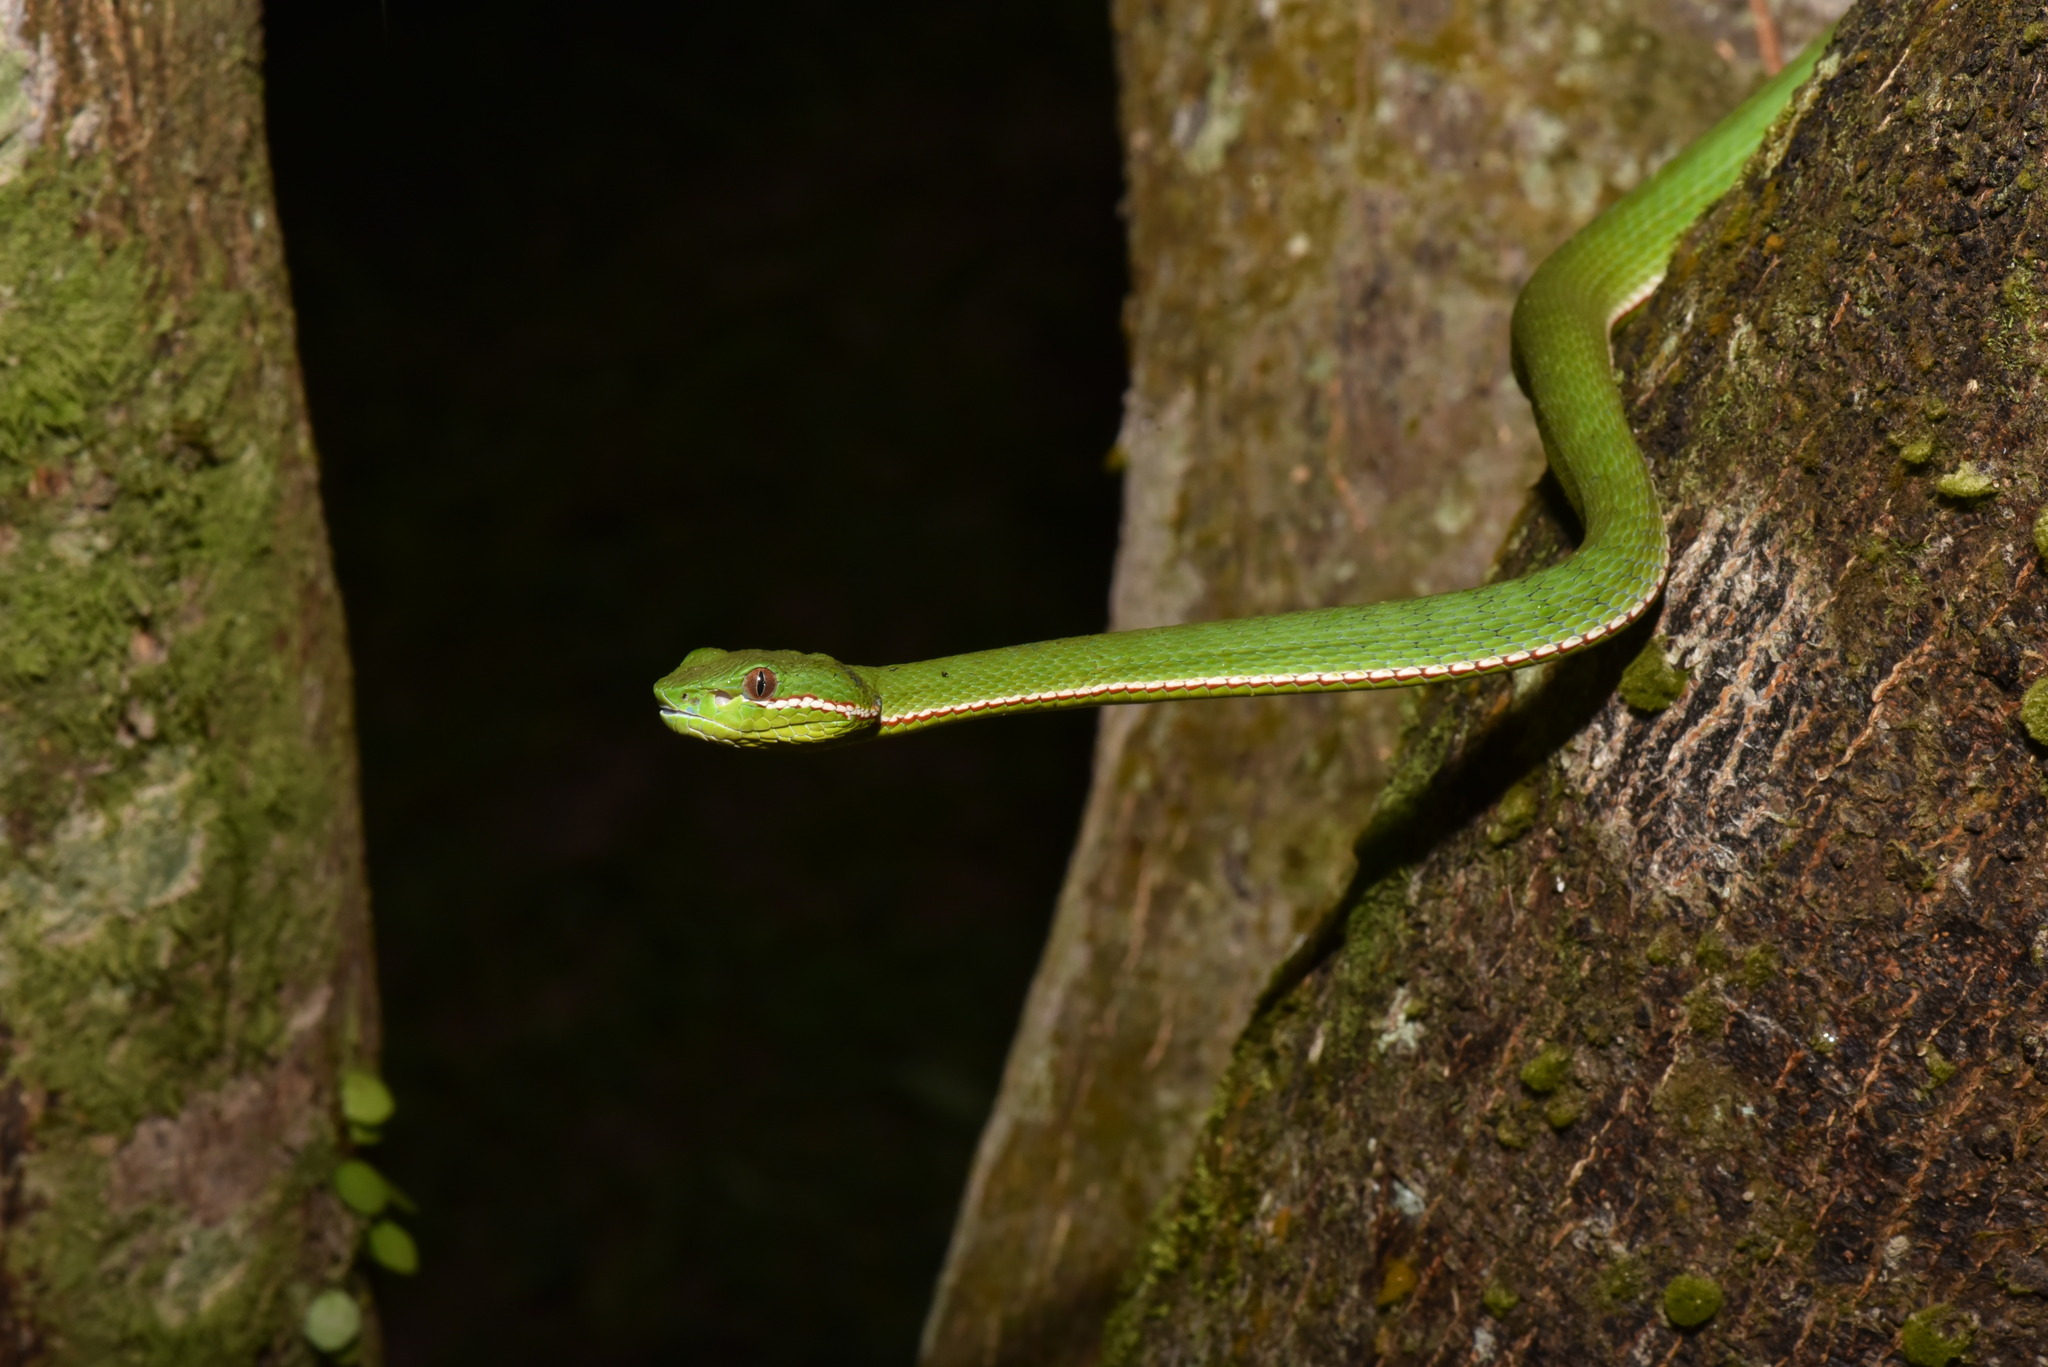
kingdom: Animalia
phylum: Chordata
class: Squamata
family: Viperidae
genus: Trimeresurus
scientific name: Trimeresurus stejnegeri
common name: Chen’s bamboo pit viper
